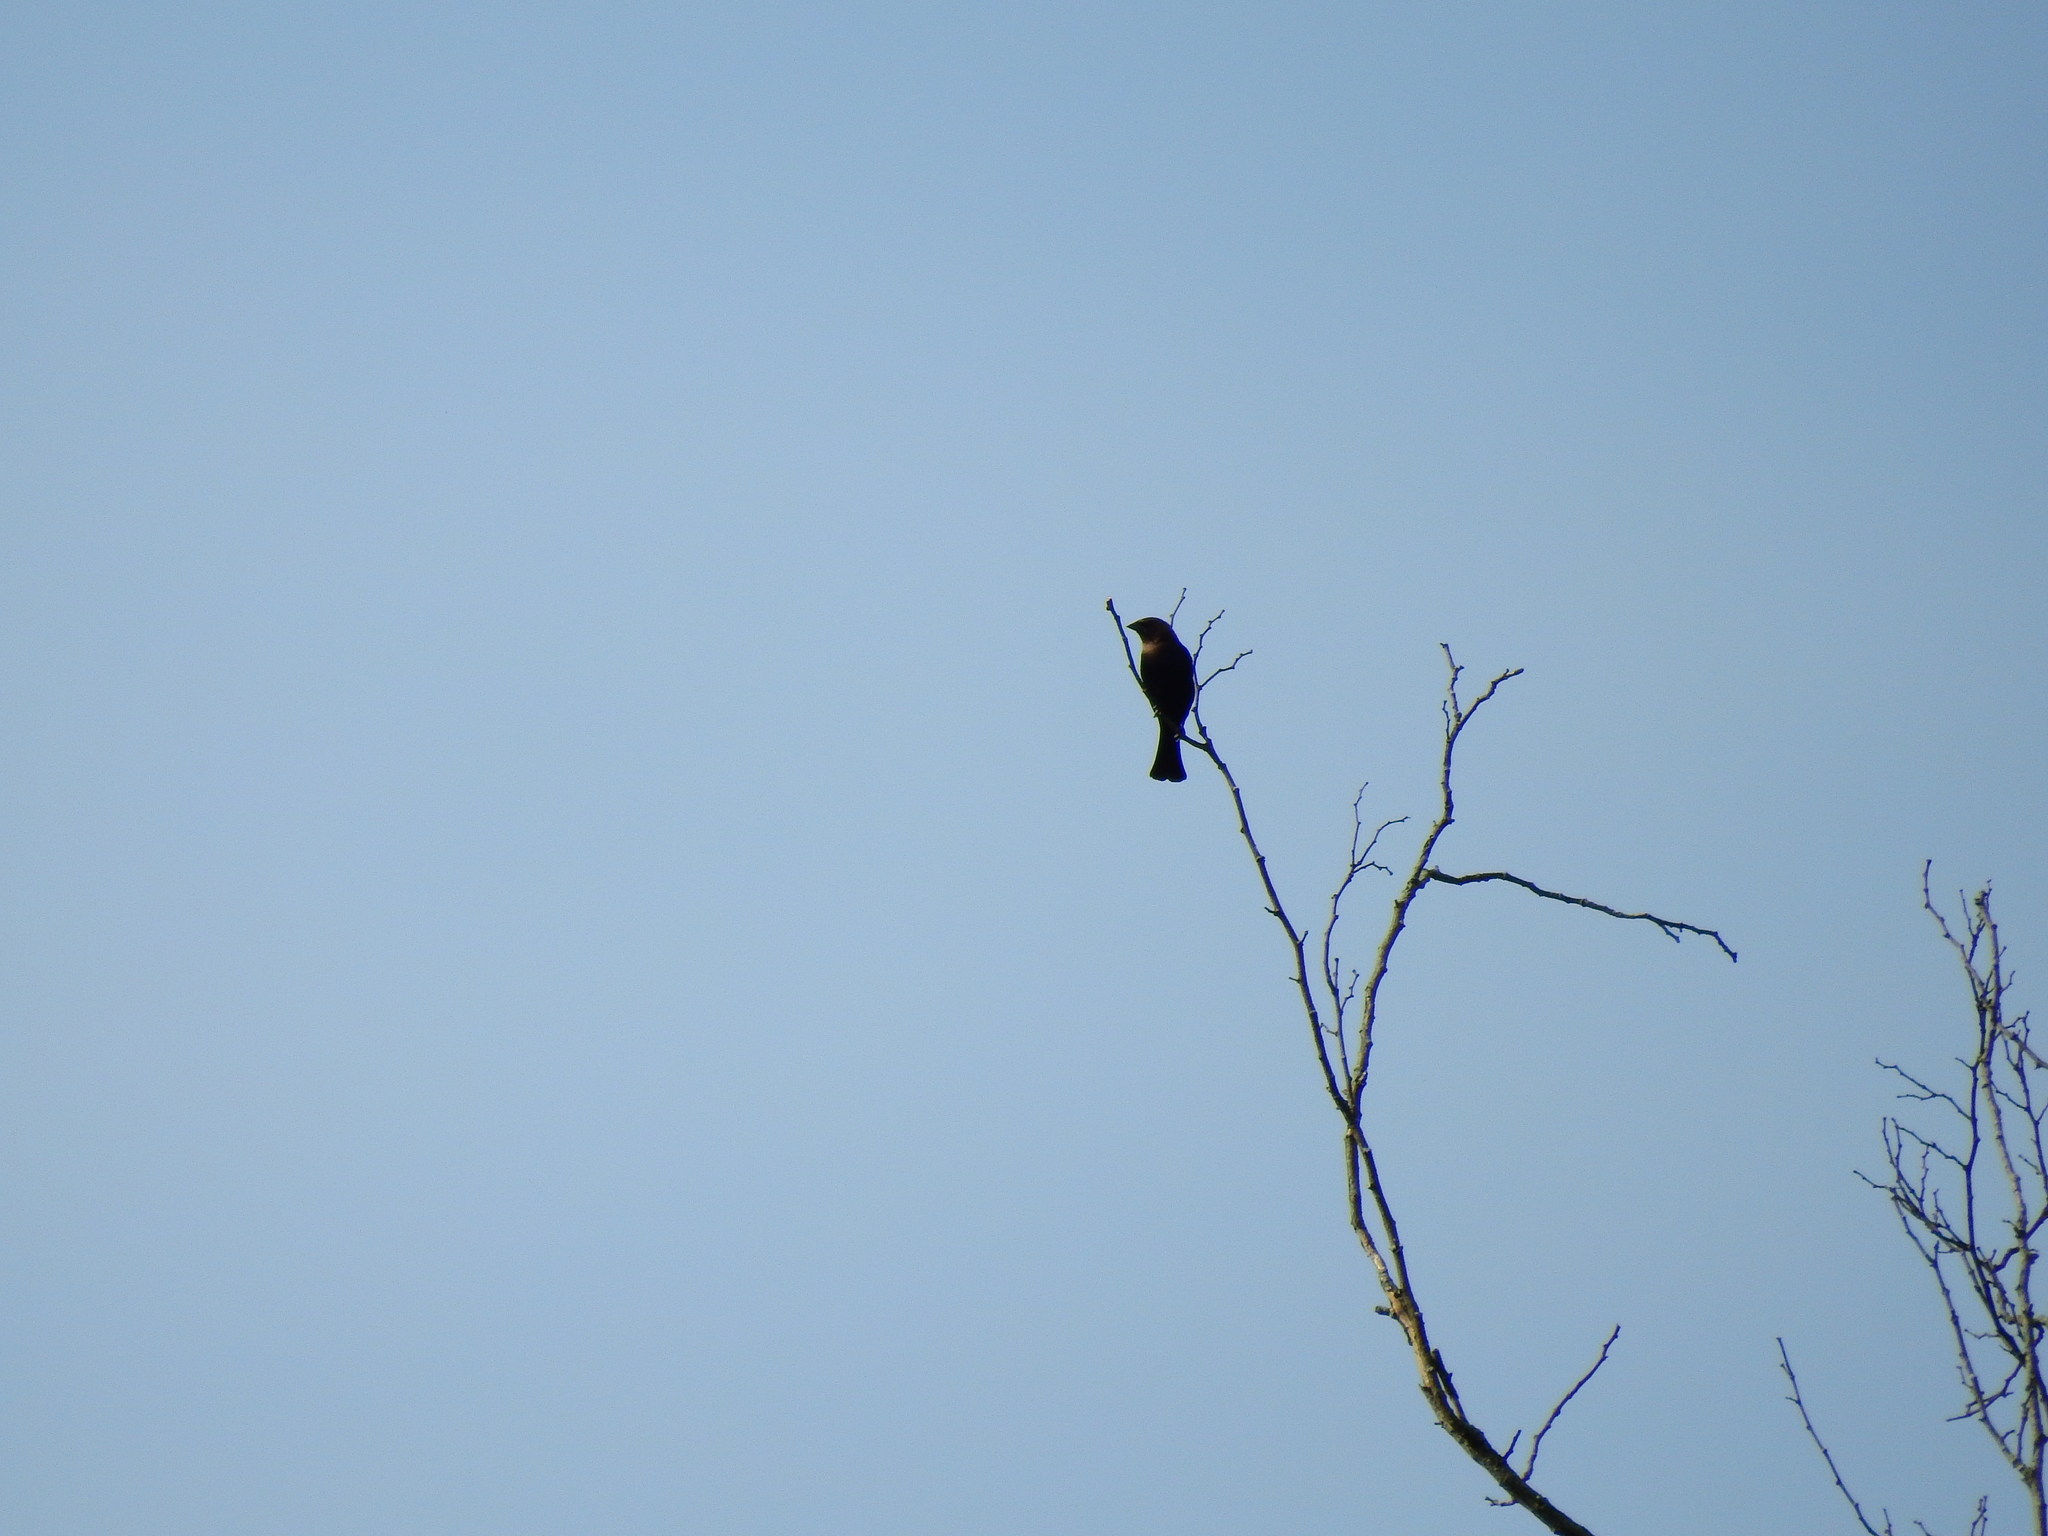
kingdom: Animalia
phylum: Chordata
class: Aves
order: Passeriformes
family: Icteridae
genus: Molothrus
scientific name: Molothrus ater
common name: Brown-headed cowbird
